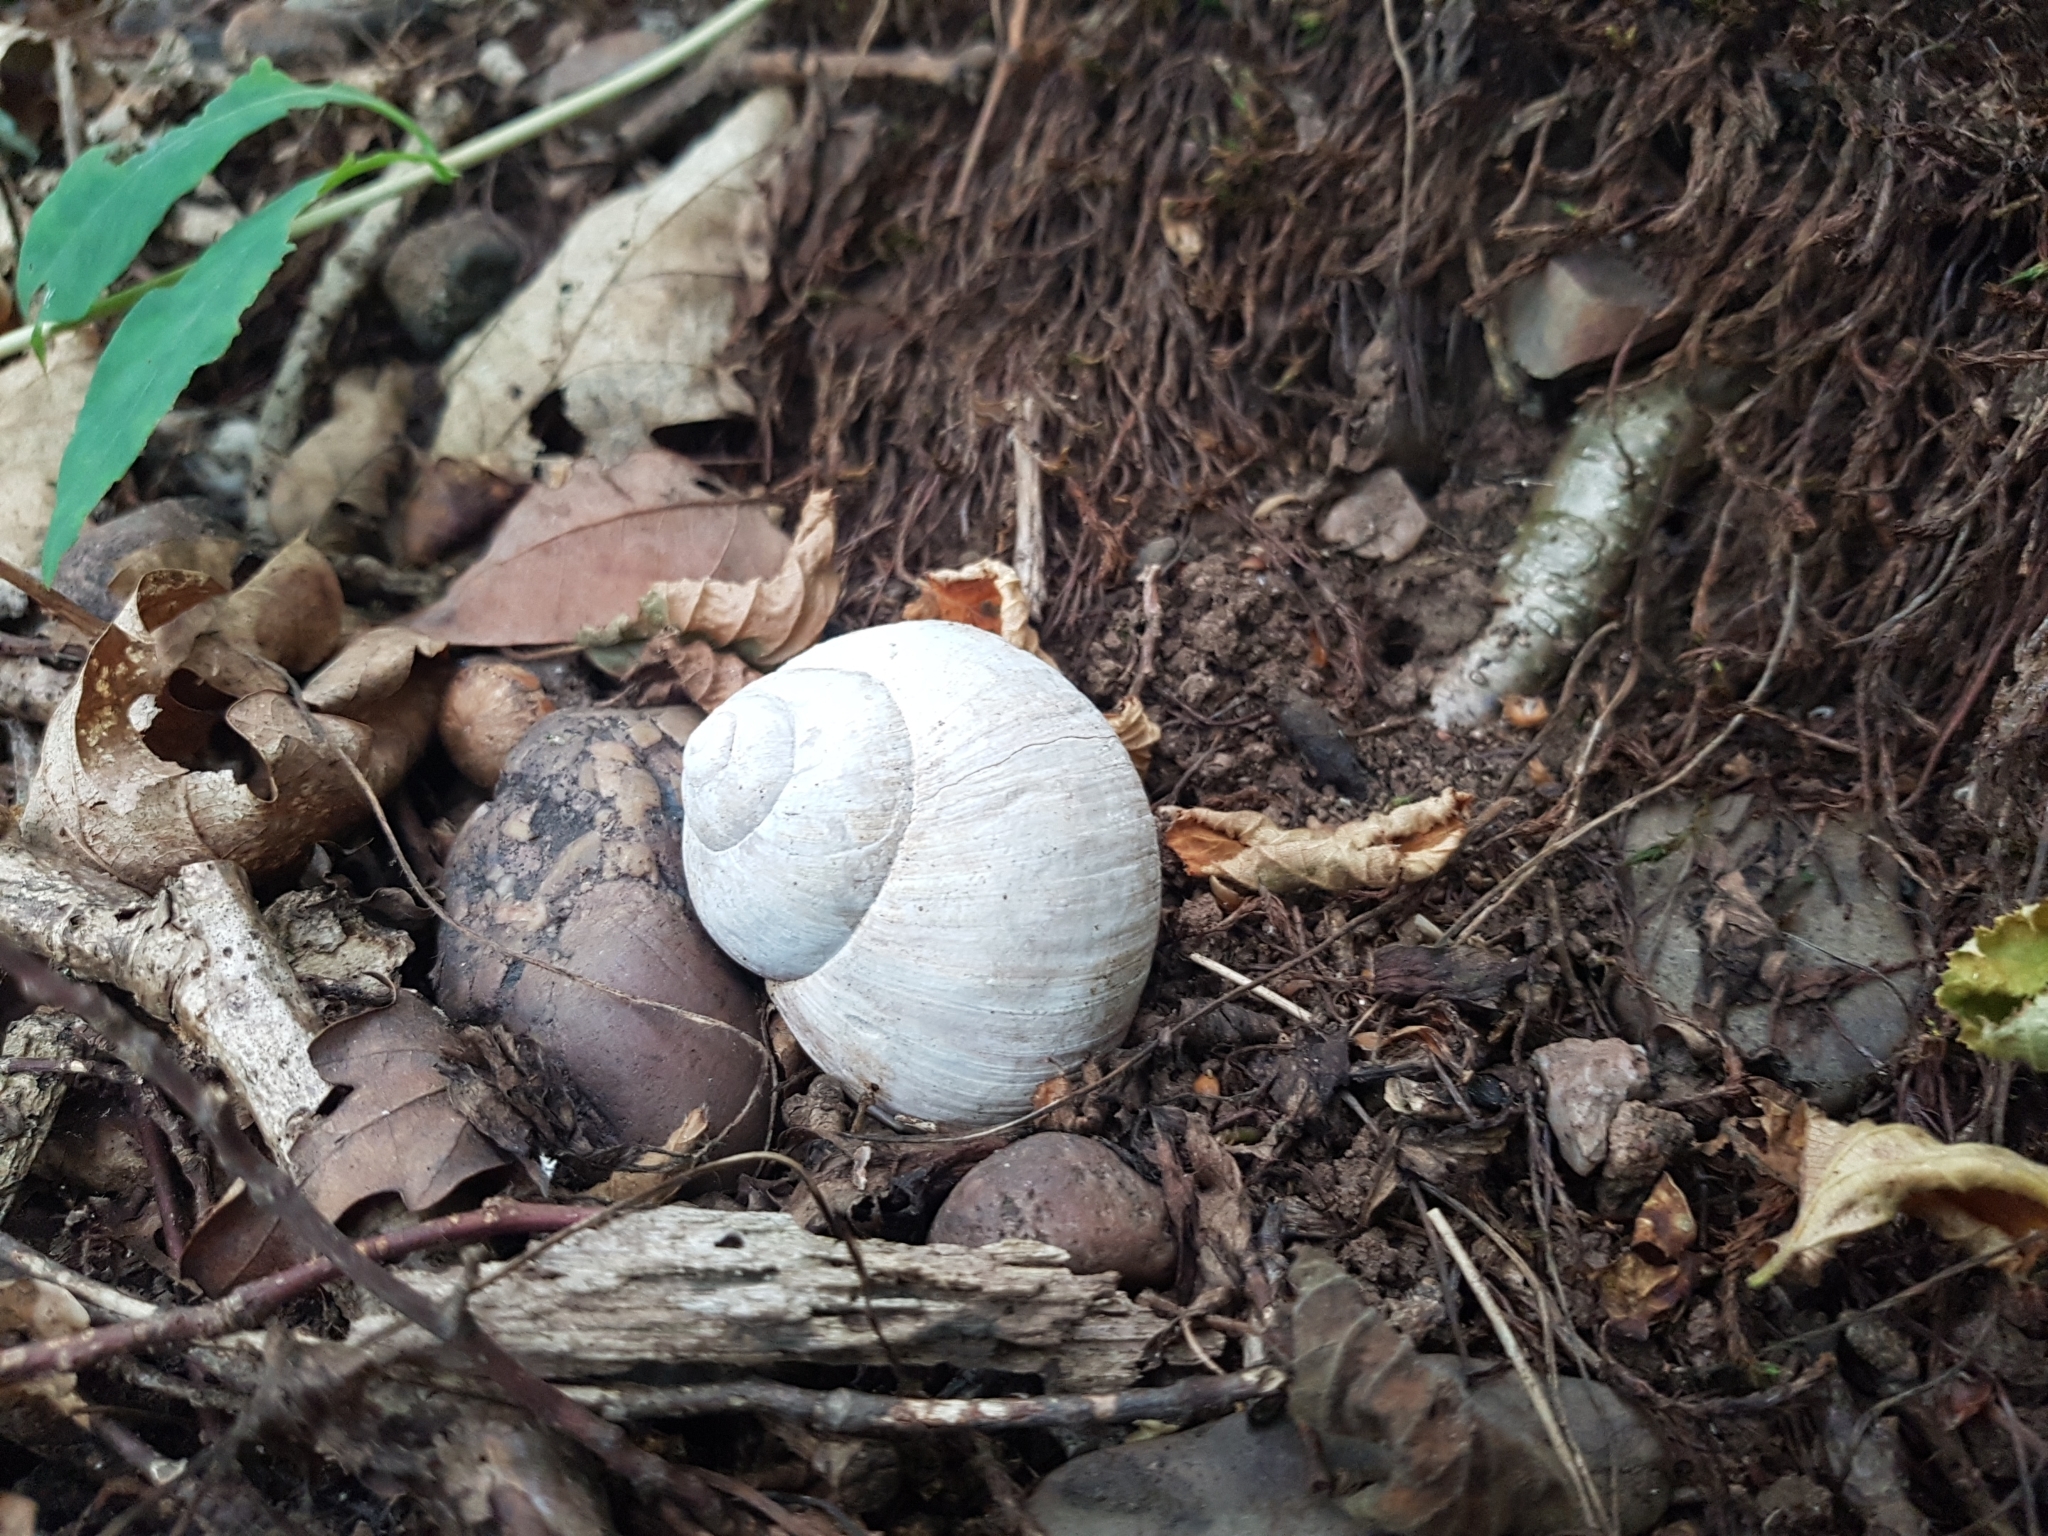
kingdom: Animalia
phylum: Mollusca
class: Gastropoda
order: Stylommatophora
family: Helicidae
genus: Helix
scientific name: Helix pomatia
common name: Roman snail
